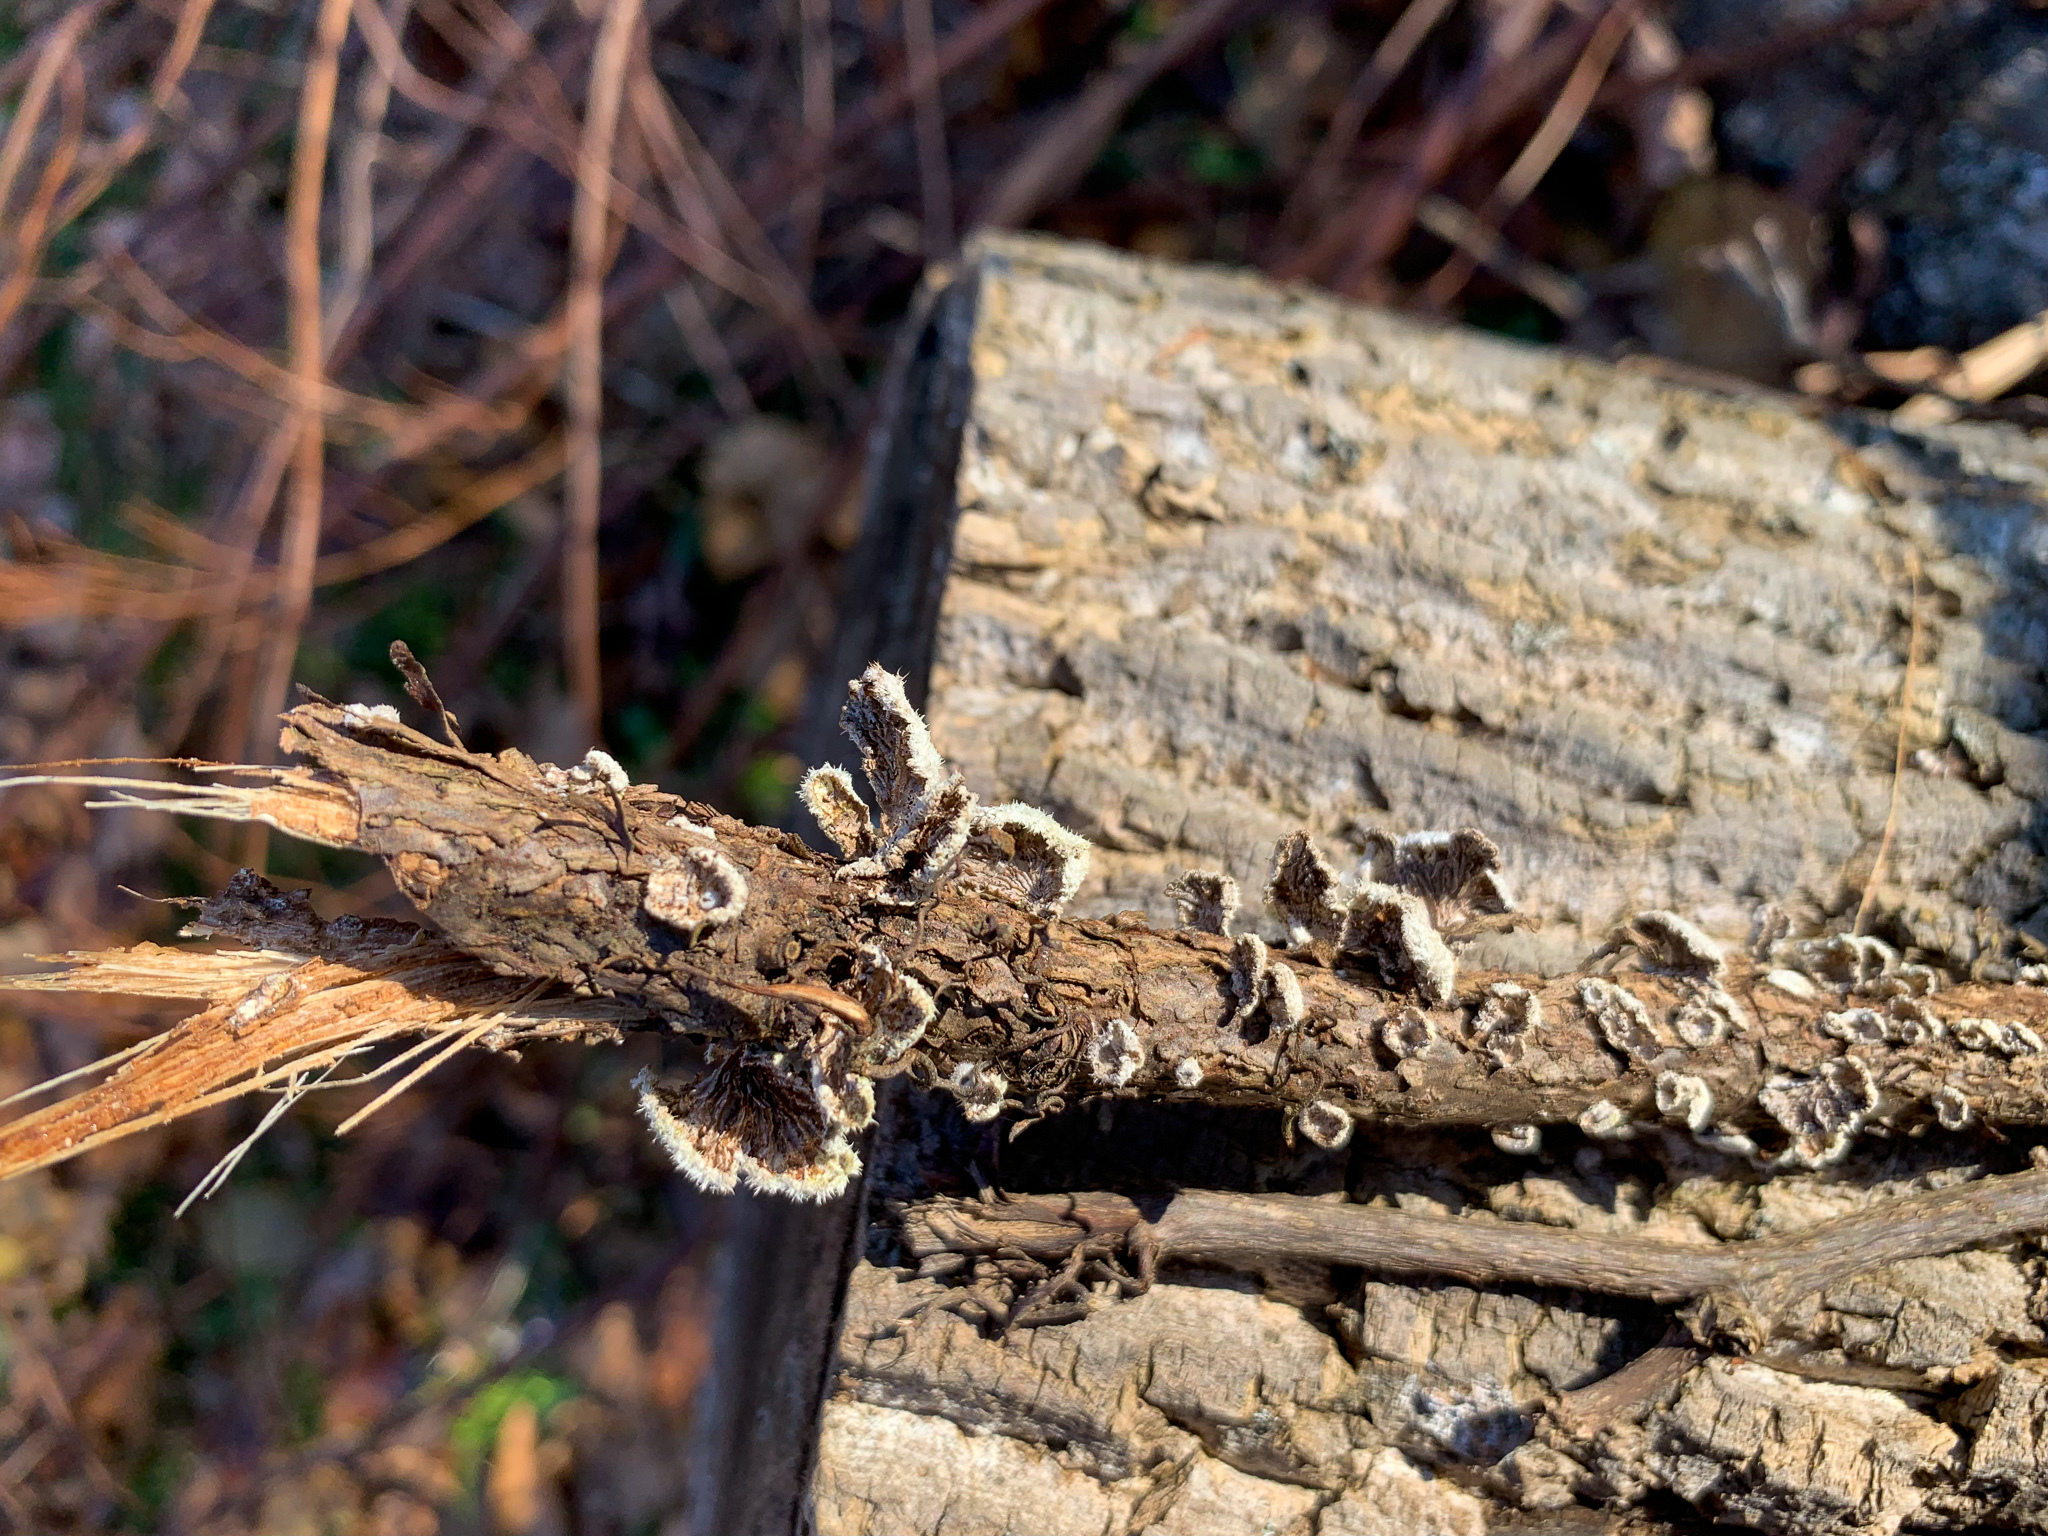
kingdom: Fungi
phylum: Basidiomycota
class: Agaricomycetes
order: Agaricales
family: Schizophyllaceae
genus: Schizophyllum
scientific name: Schizophyllum commune
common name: Common porecrust
